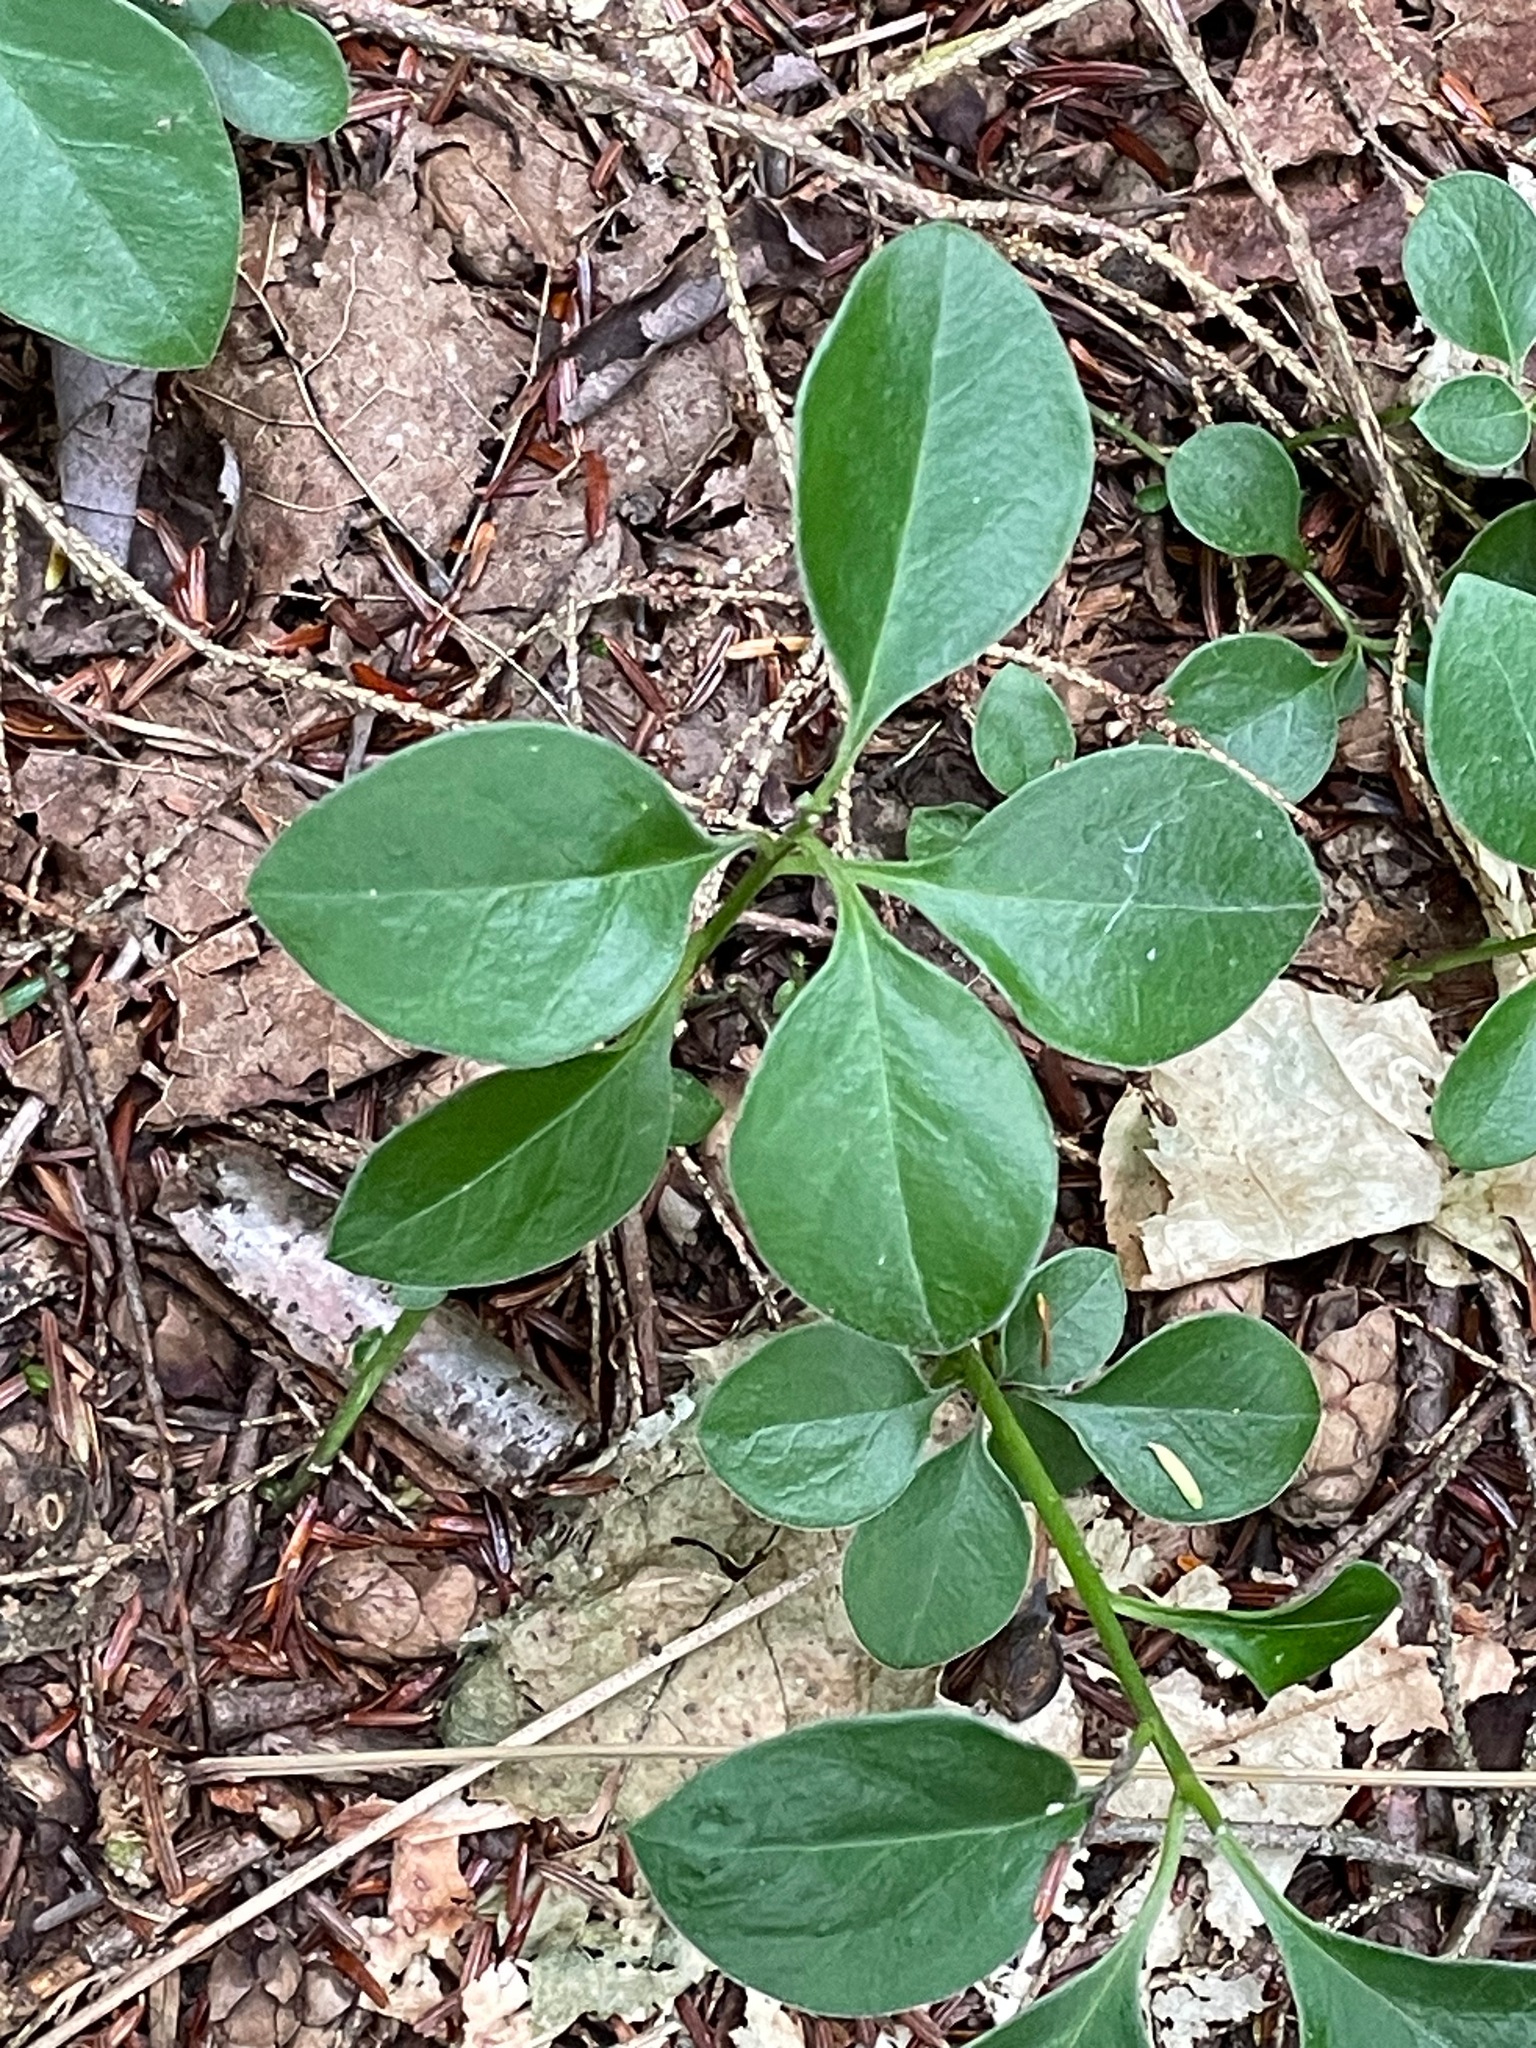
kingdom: Plantae
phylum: Tracheophyta
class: Magnoliopsida
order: Fabales
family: Polygalaceae
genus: Polygaloides
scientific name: Polygaloides paucifolia
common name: Bird-on-the-wing
